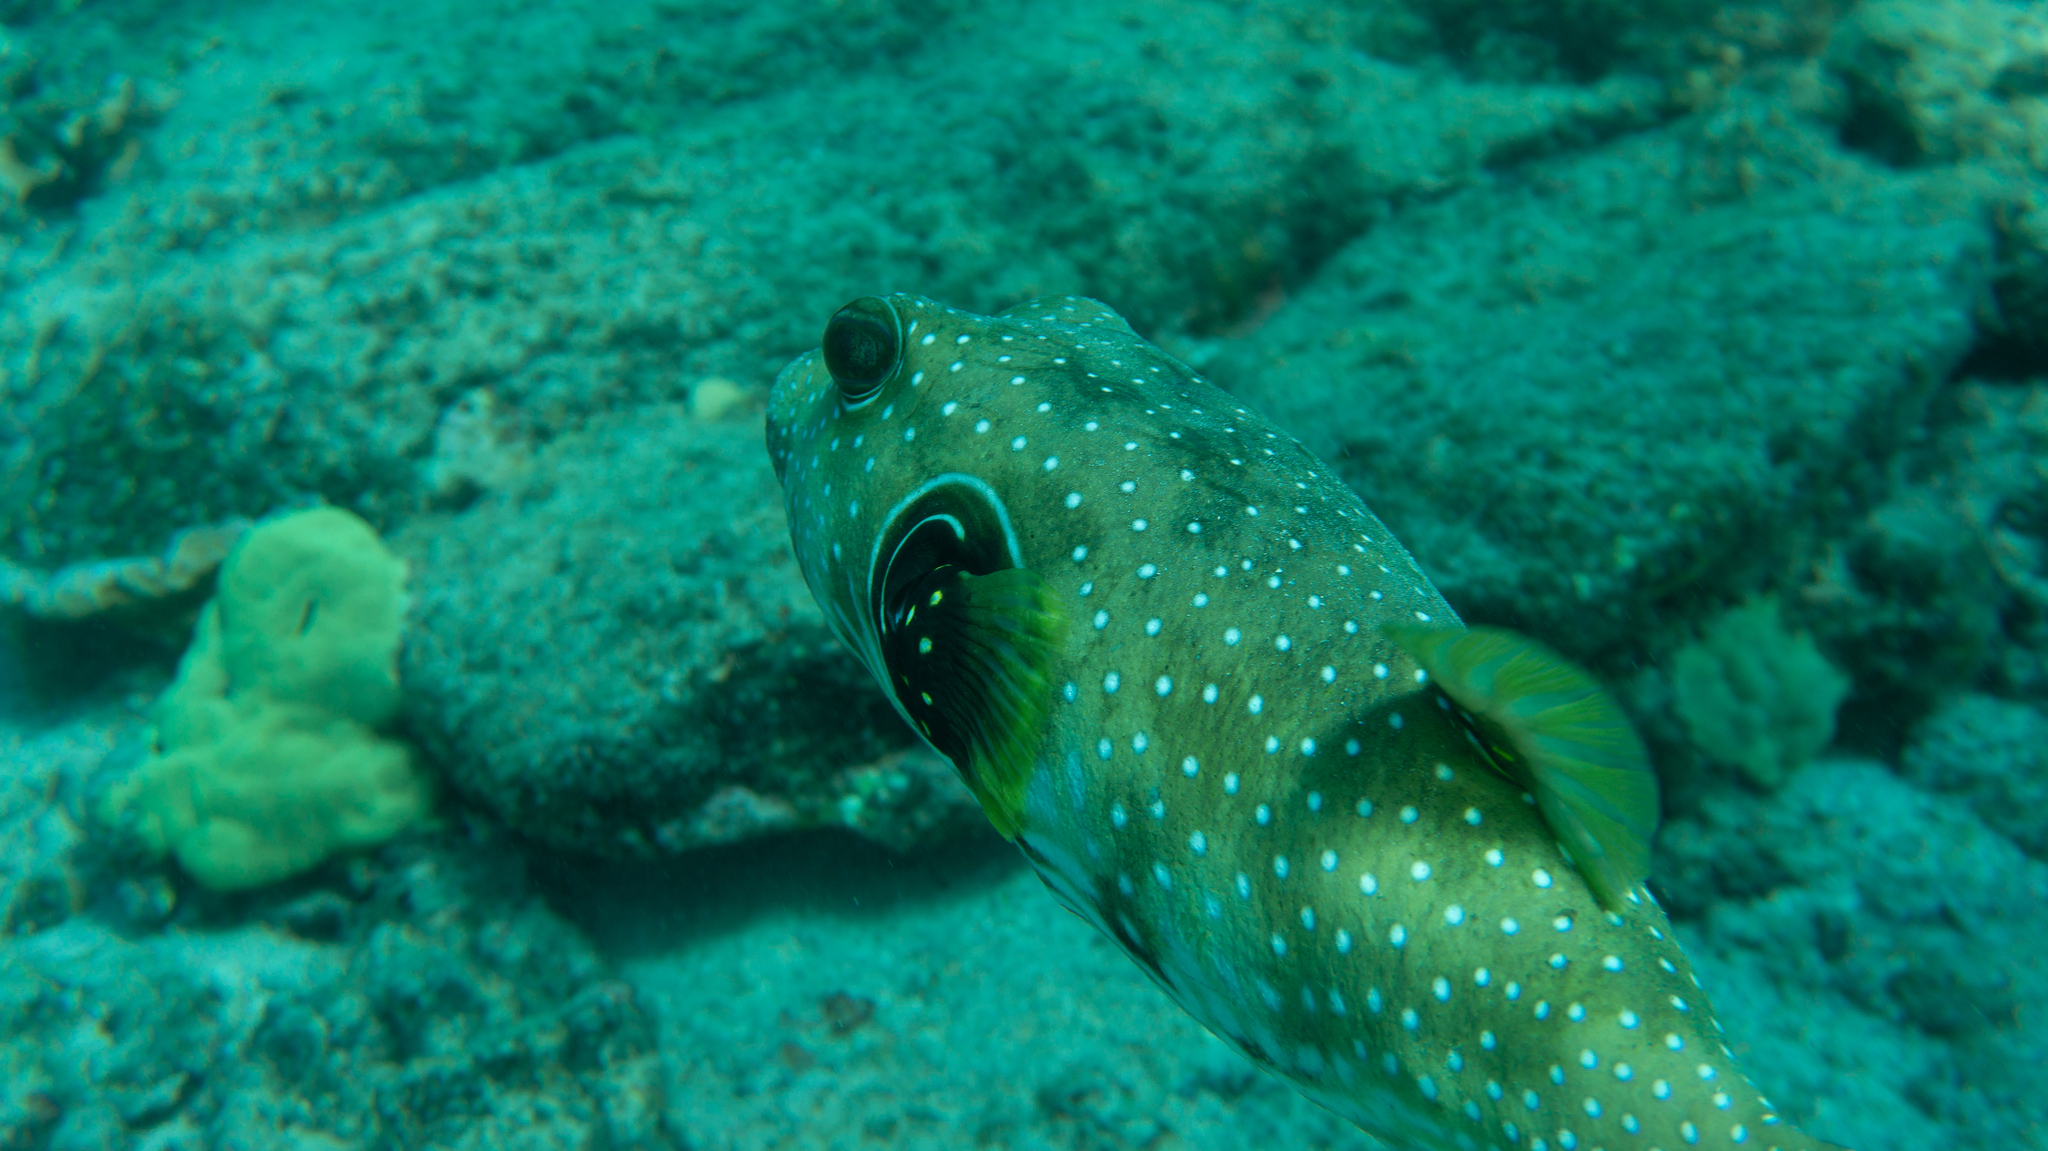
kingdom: Animalia
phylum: Chordata
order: Tetraodontiformes
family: Tetraodontidae
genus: Arothron
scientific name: Arothron hispidus
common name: Stripebelly puffer
